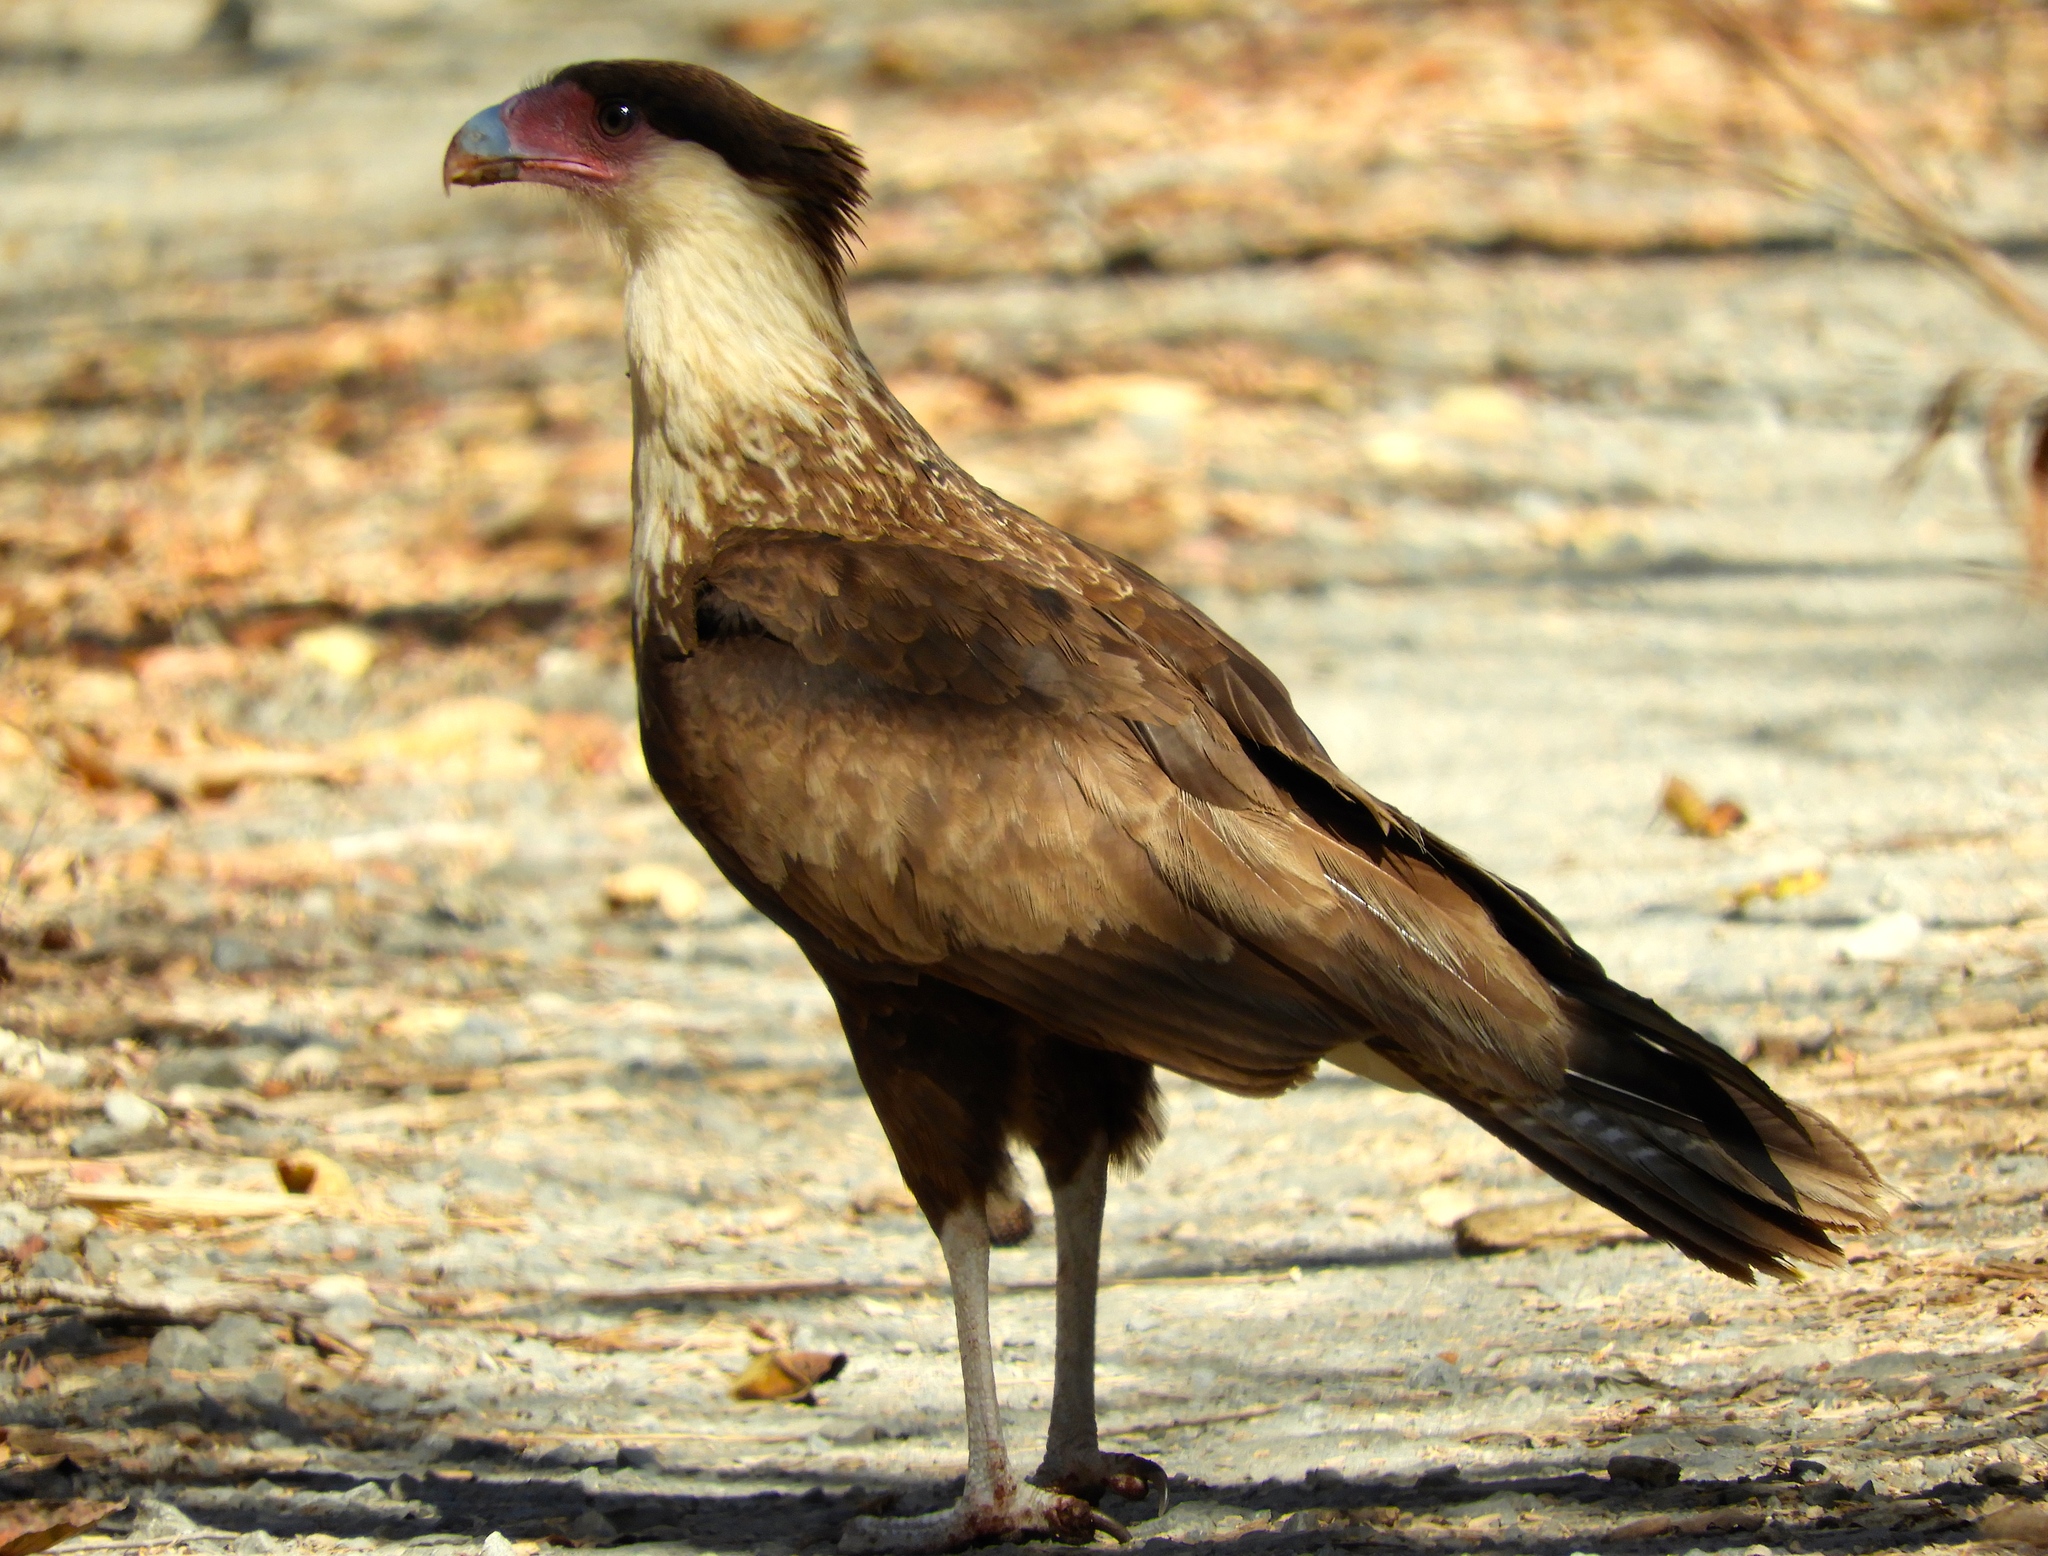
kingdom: Animalia
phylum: Chordata
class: Aves
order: Falconiformes
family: Falconidae
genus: Caracara
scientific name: Caracara plancus
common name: Southern caracara
